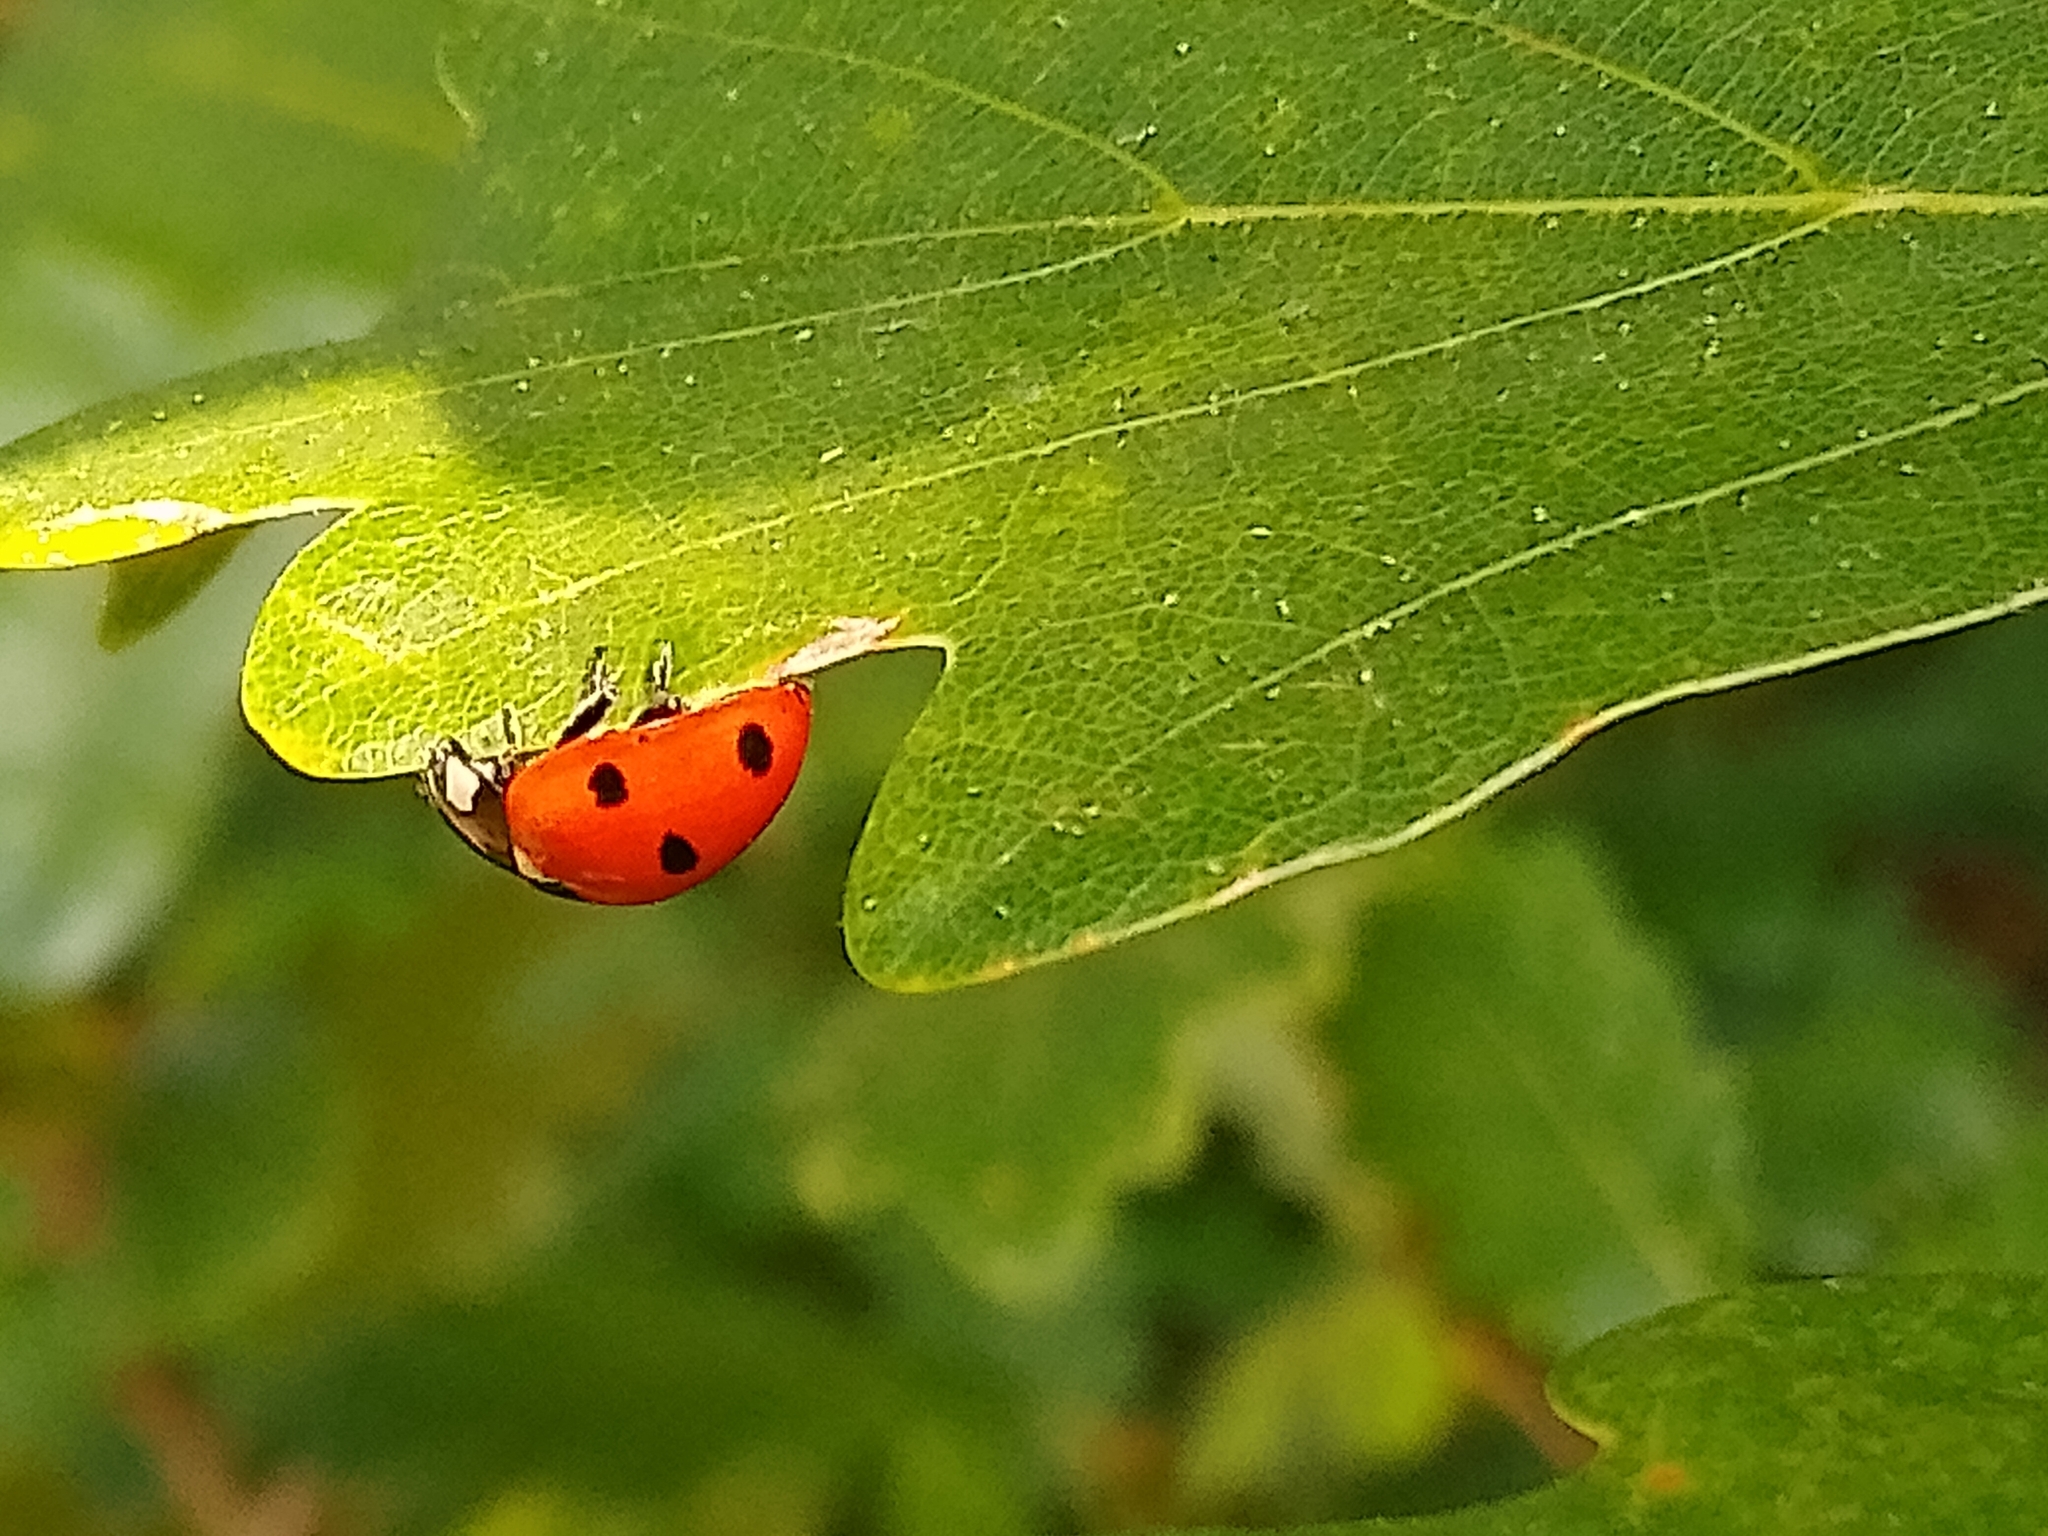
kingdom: Animalia
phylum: Arthropoda
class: Insecta
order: Coleoptera
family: Coccinellidae
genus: Coccinella
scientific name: Coccinella septempunctata
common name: Sevenspotted lady beetle
